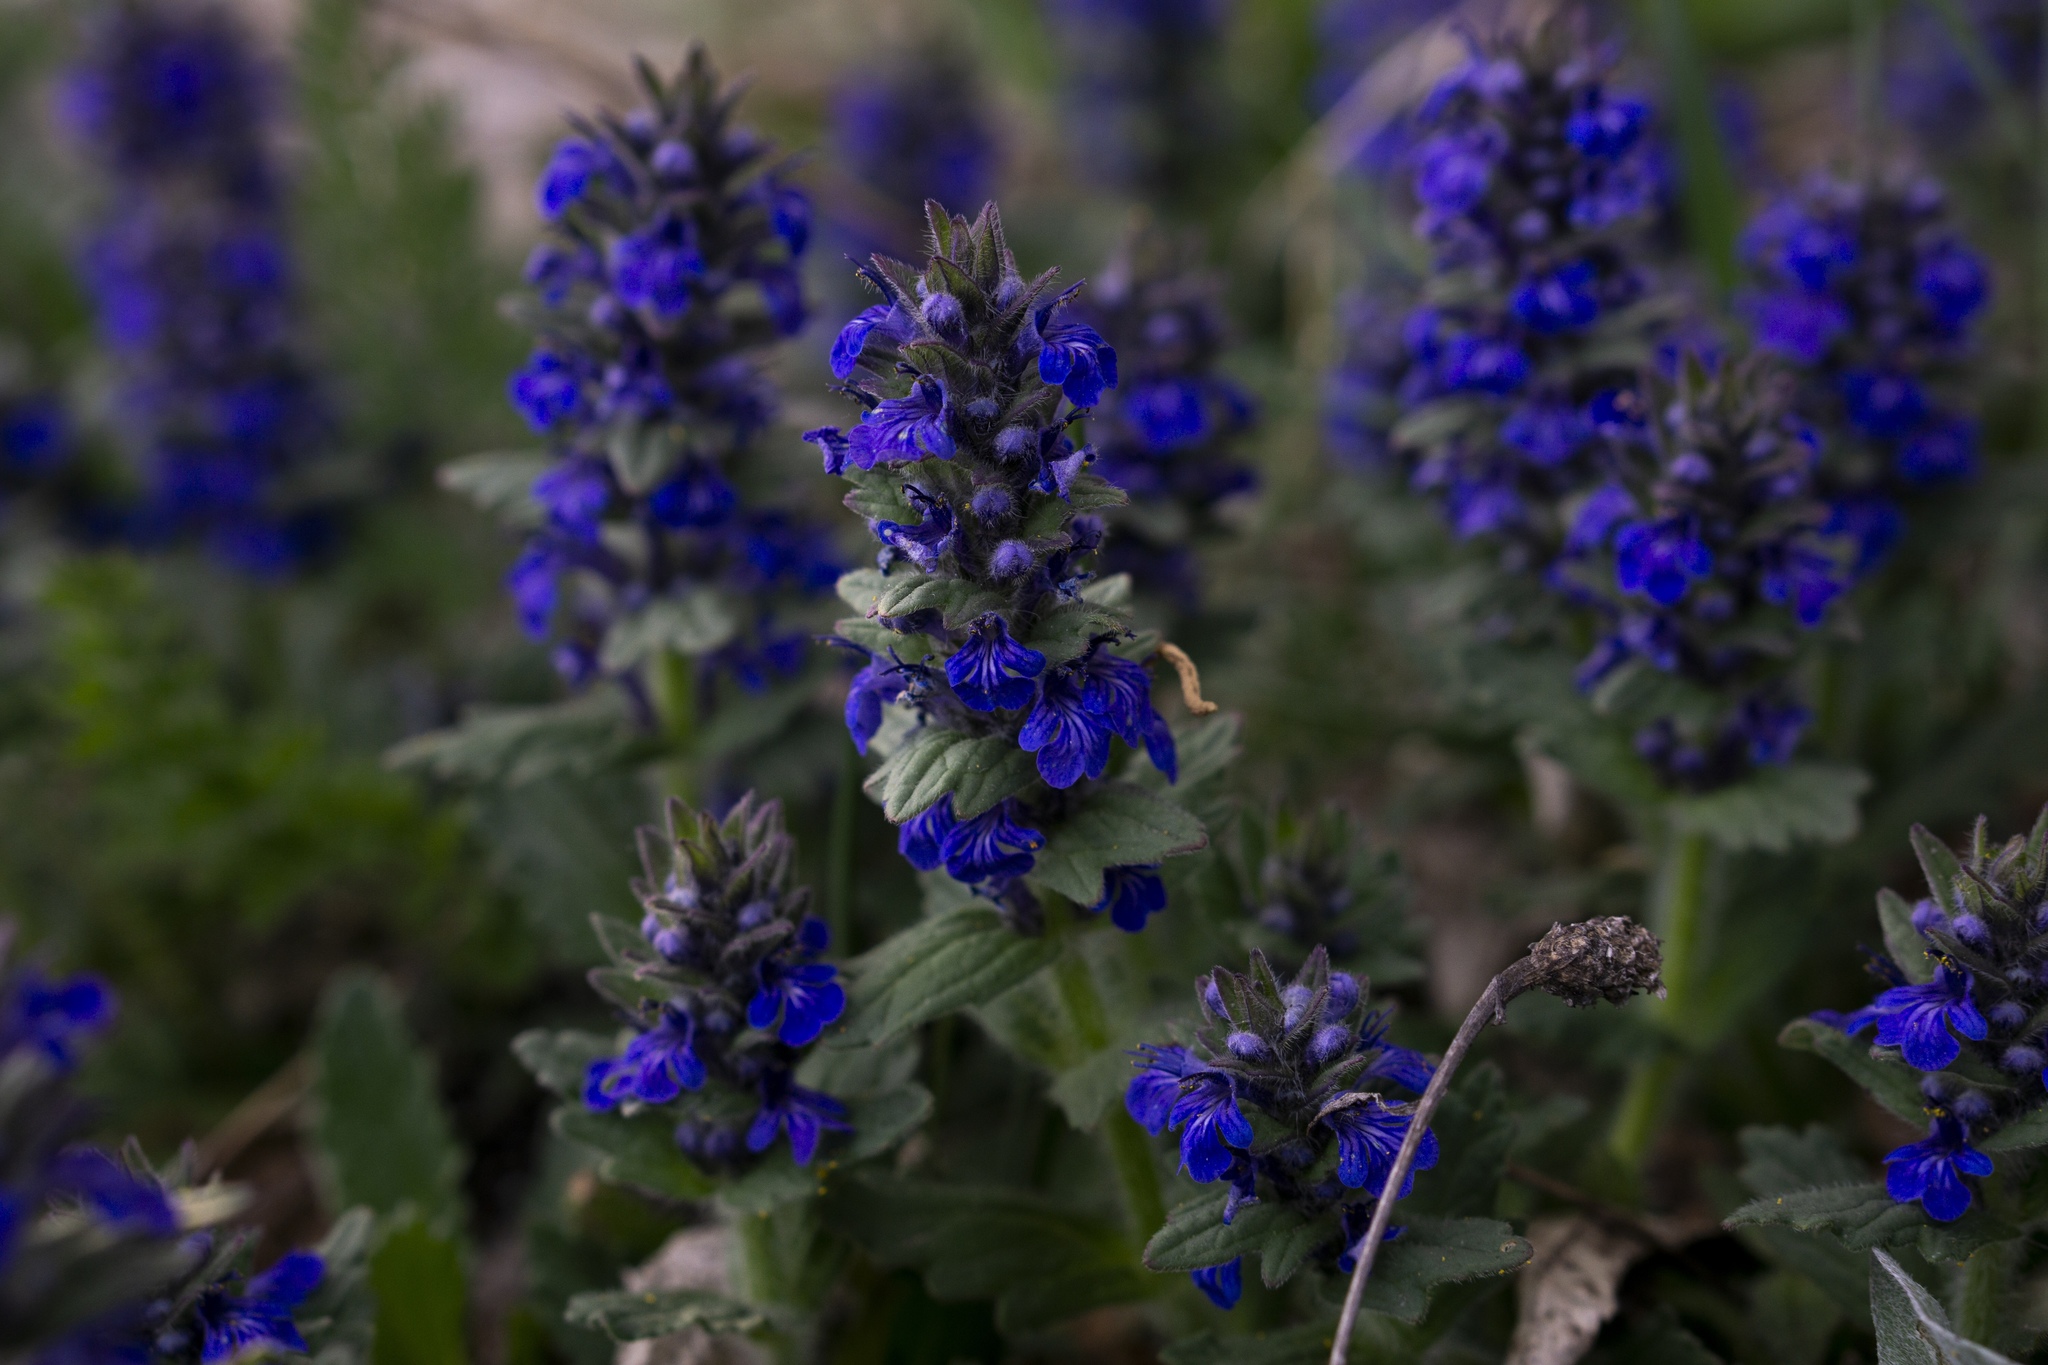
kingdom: Plantae
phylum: Tracheophyta
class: Magnoliopsida
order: Lamiales
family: Lamiaceae
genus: Ajuga
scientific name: Ajuga genevensis
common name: Blue bugle
